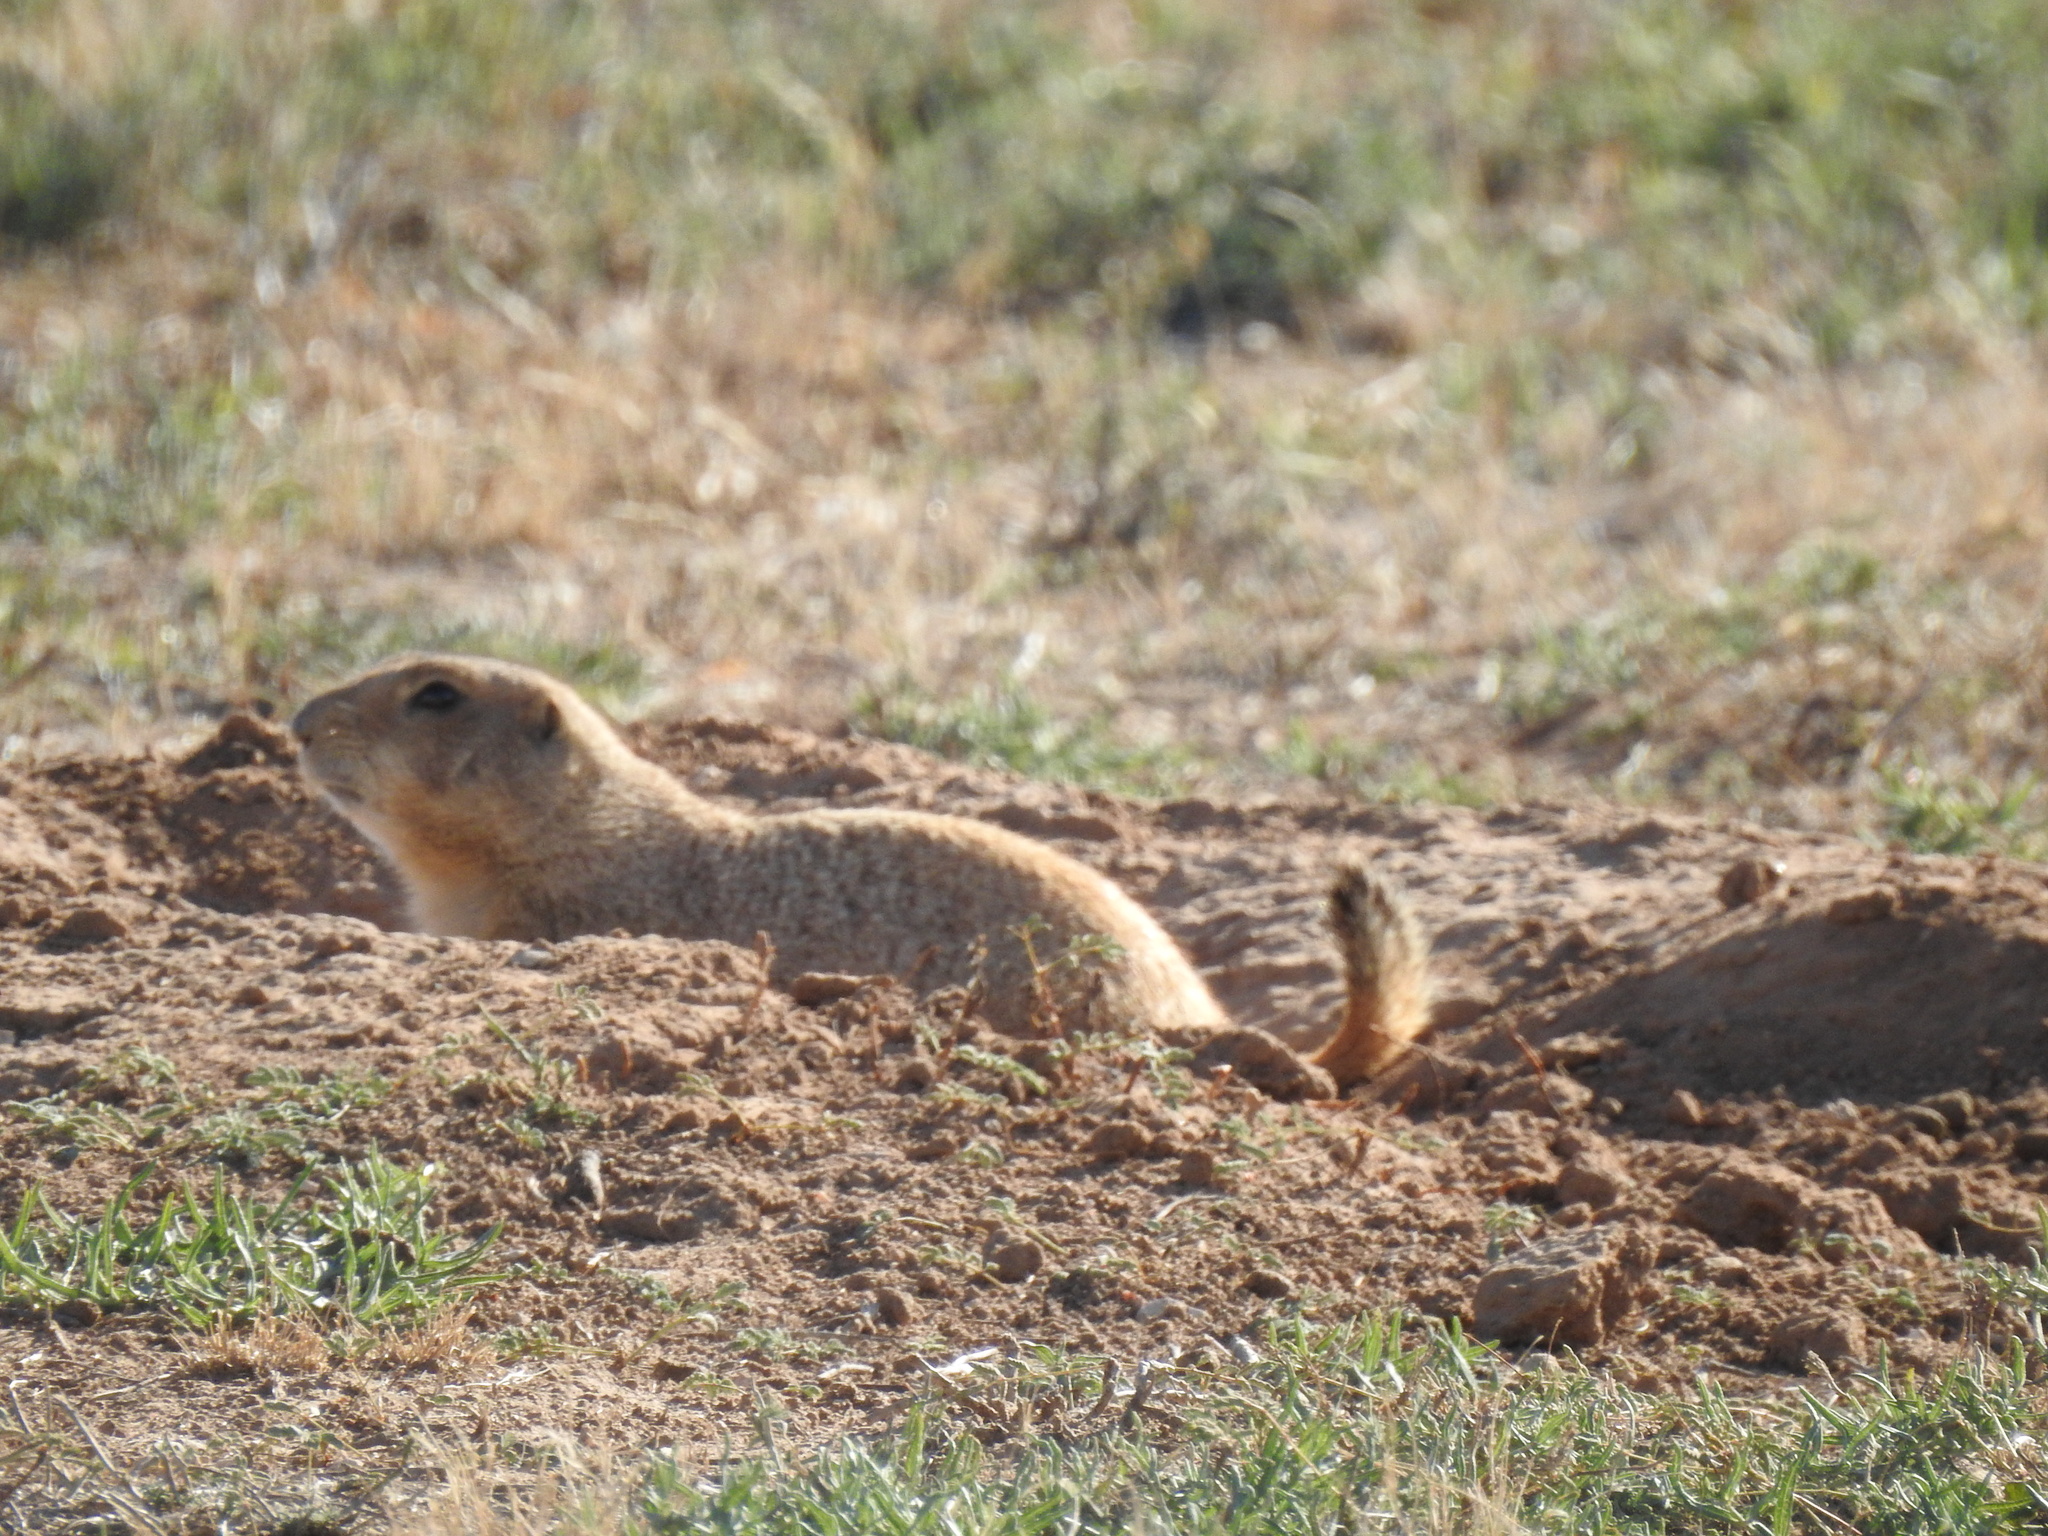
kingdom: Animalia
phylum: Chordata
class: Mammalia
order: Rodentia
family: Sciuridae
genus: Cynomys
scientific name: Cynomys ludovicianus
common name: Black-tailed prairie dog
